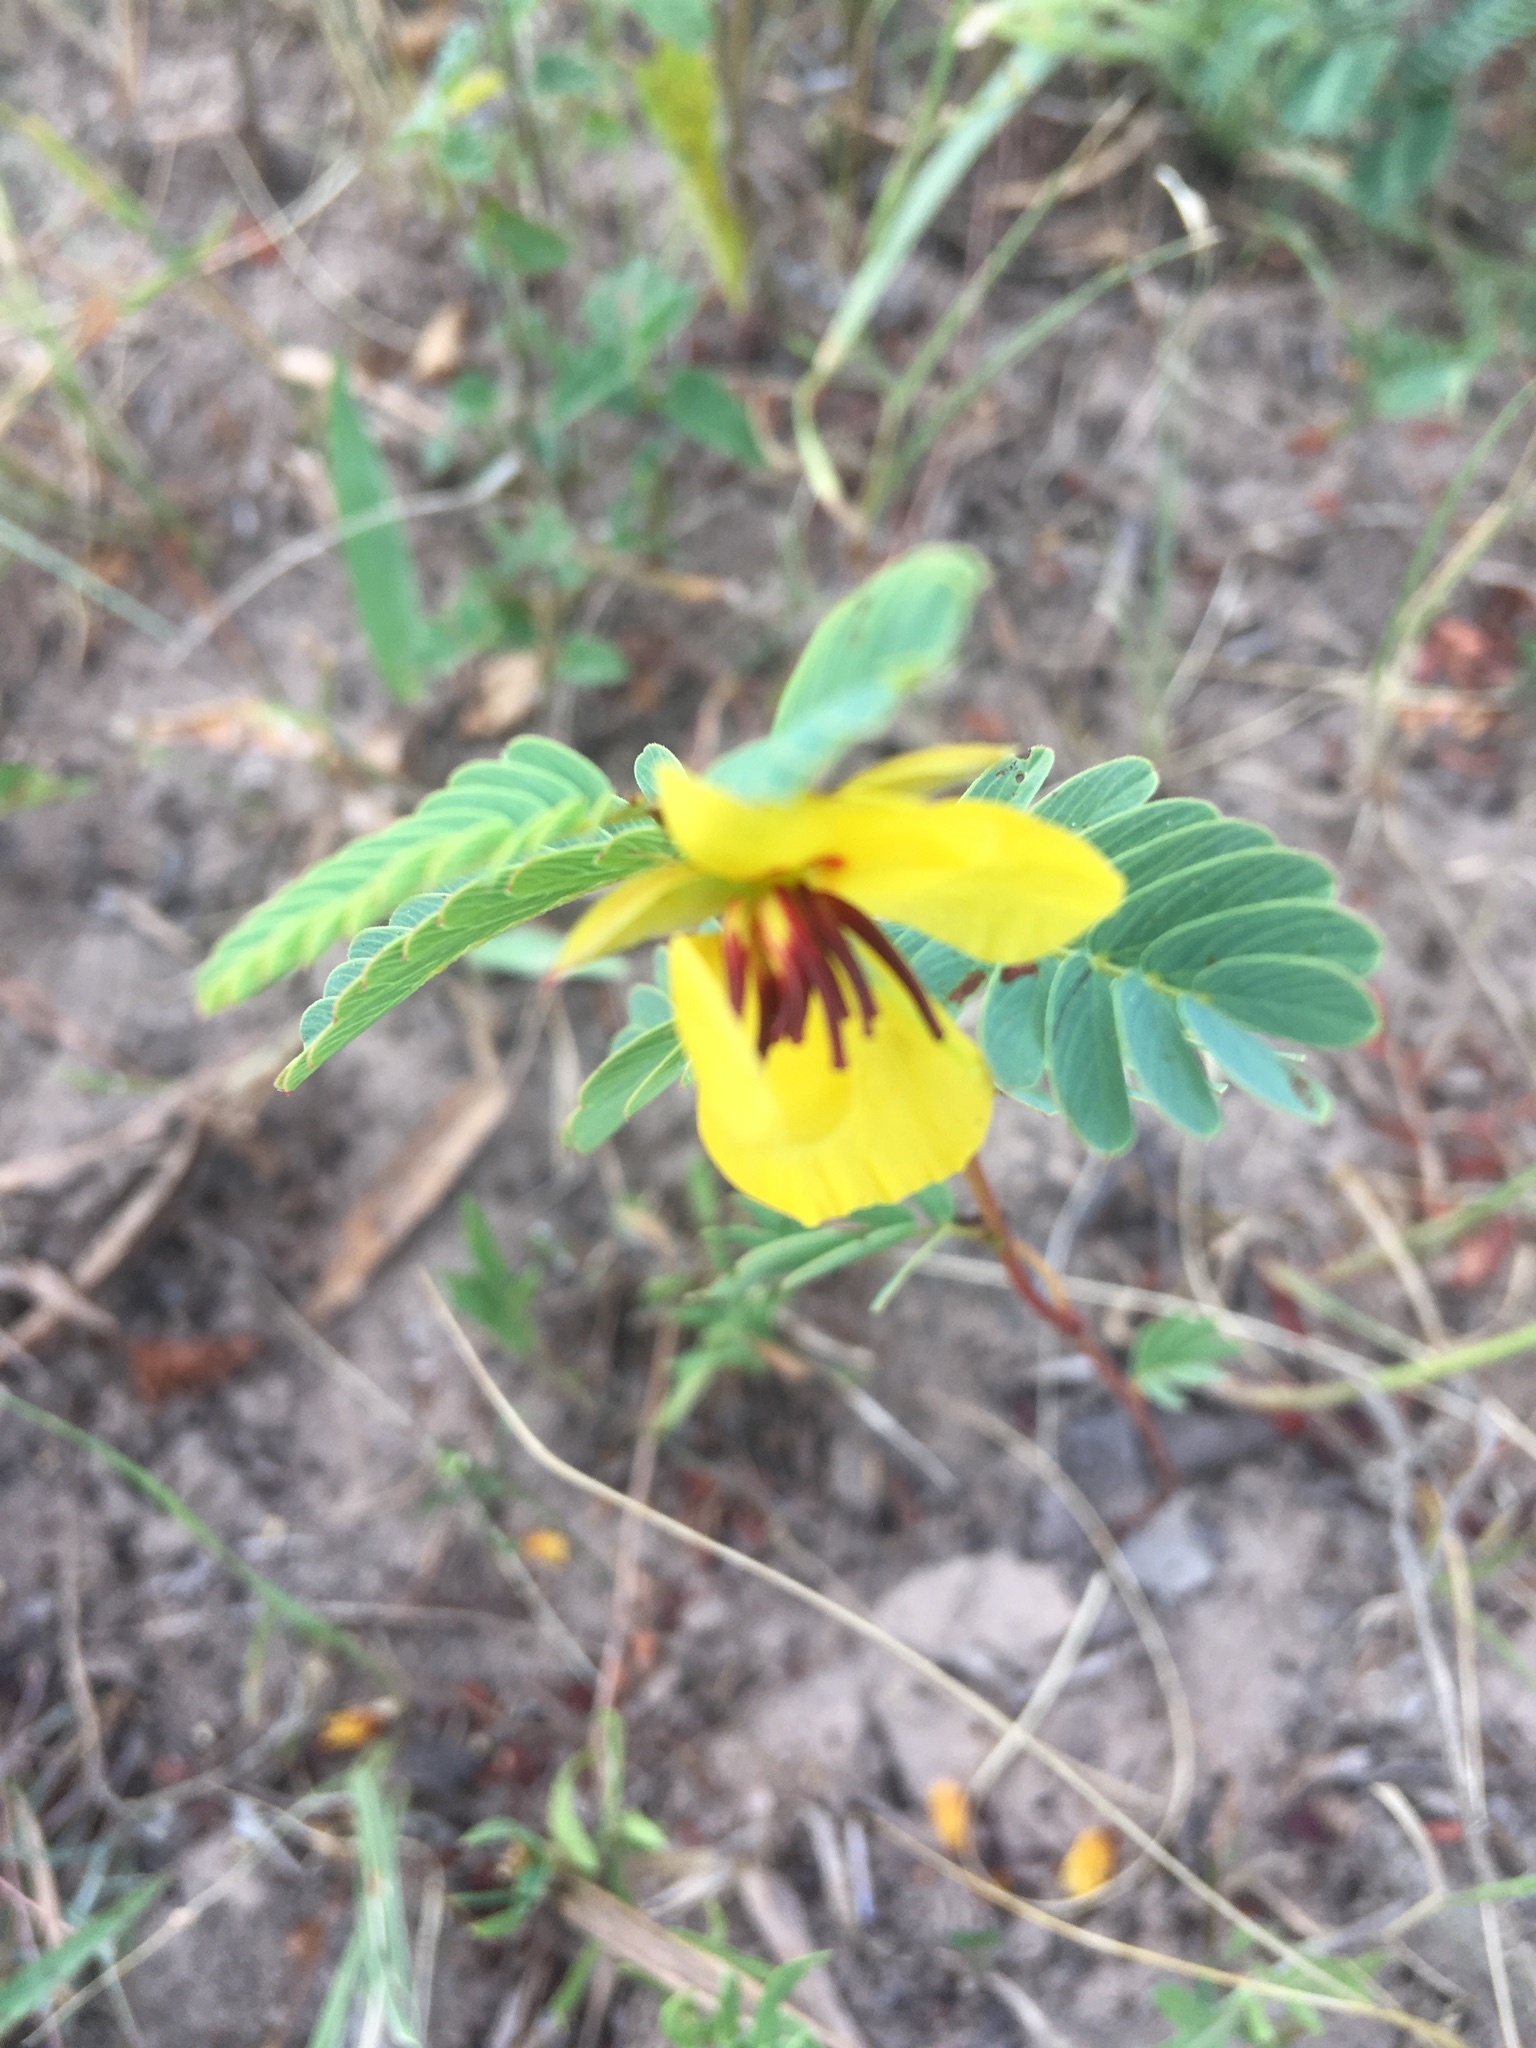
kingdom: Plantae
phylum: Tracheophyta
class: Magnoliopsida
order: Fabales
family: Fabaceae
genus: Chamaecrista
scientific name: Chamaecrista fasciculata
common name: Golden cassia
